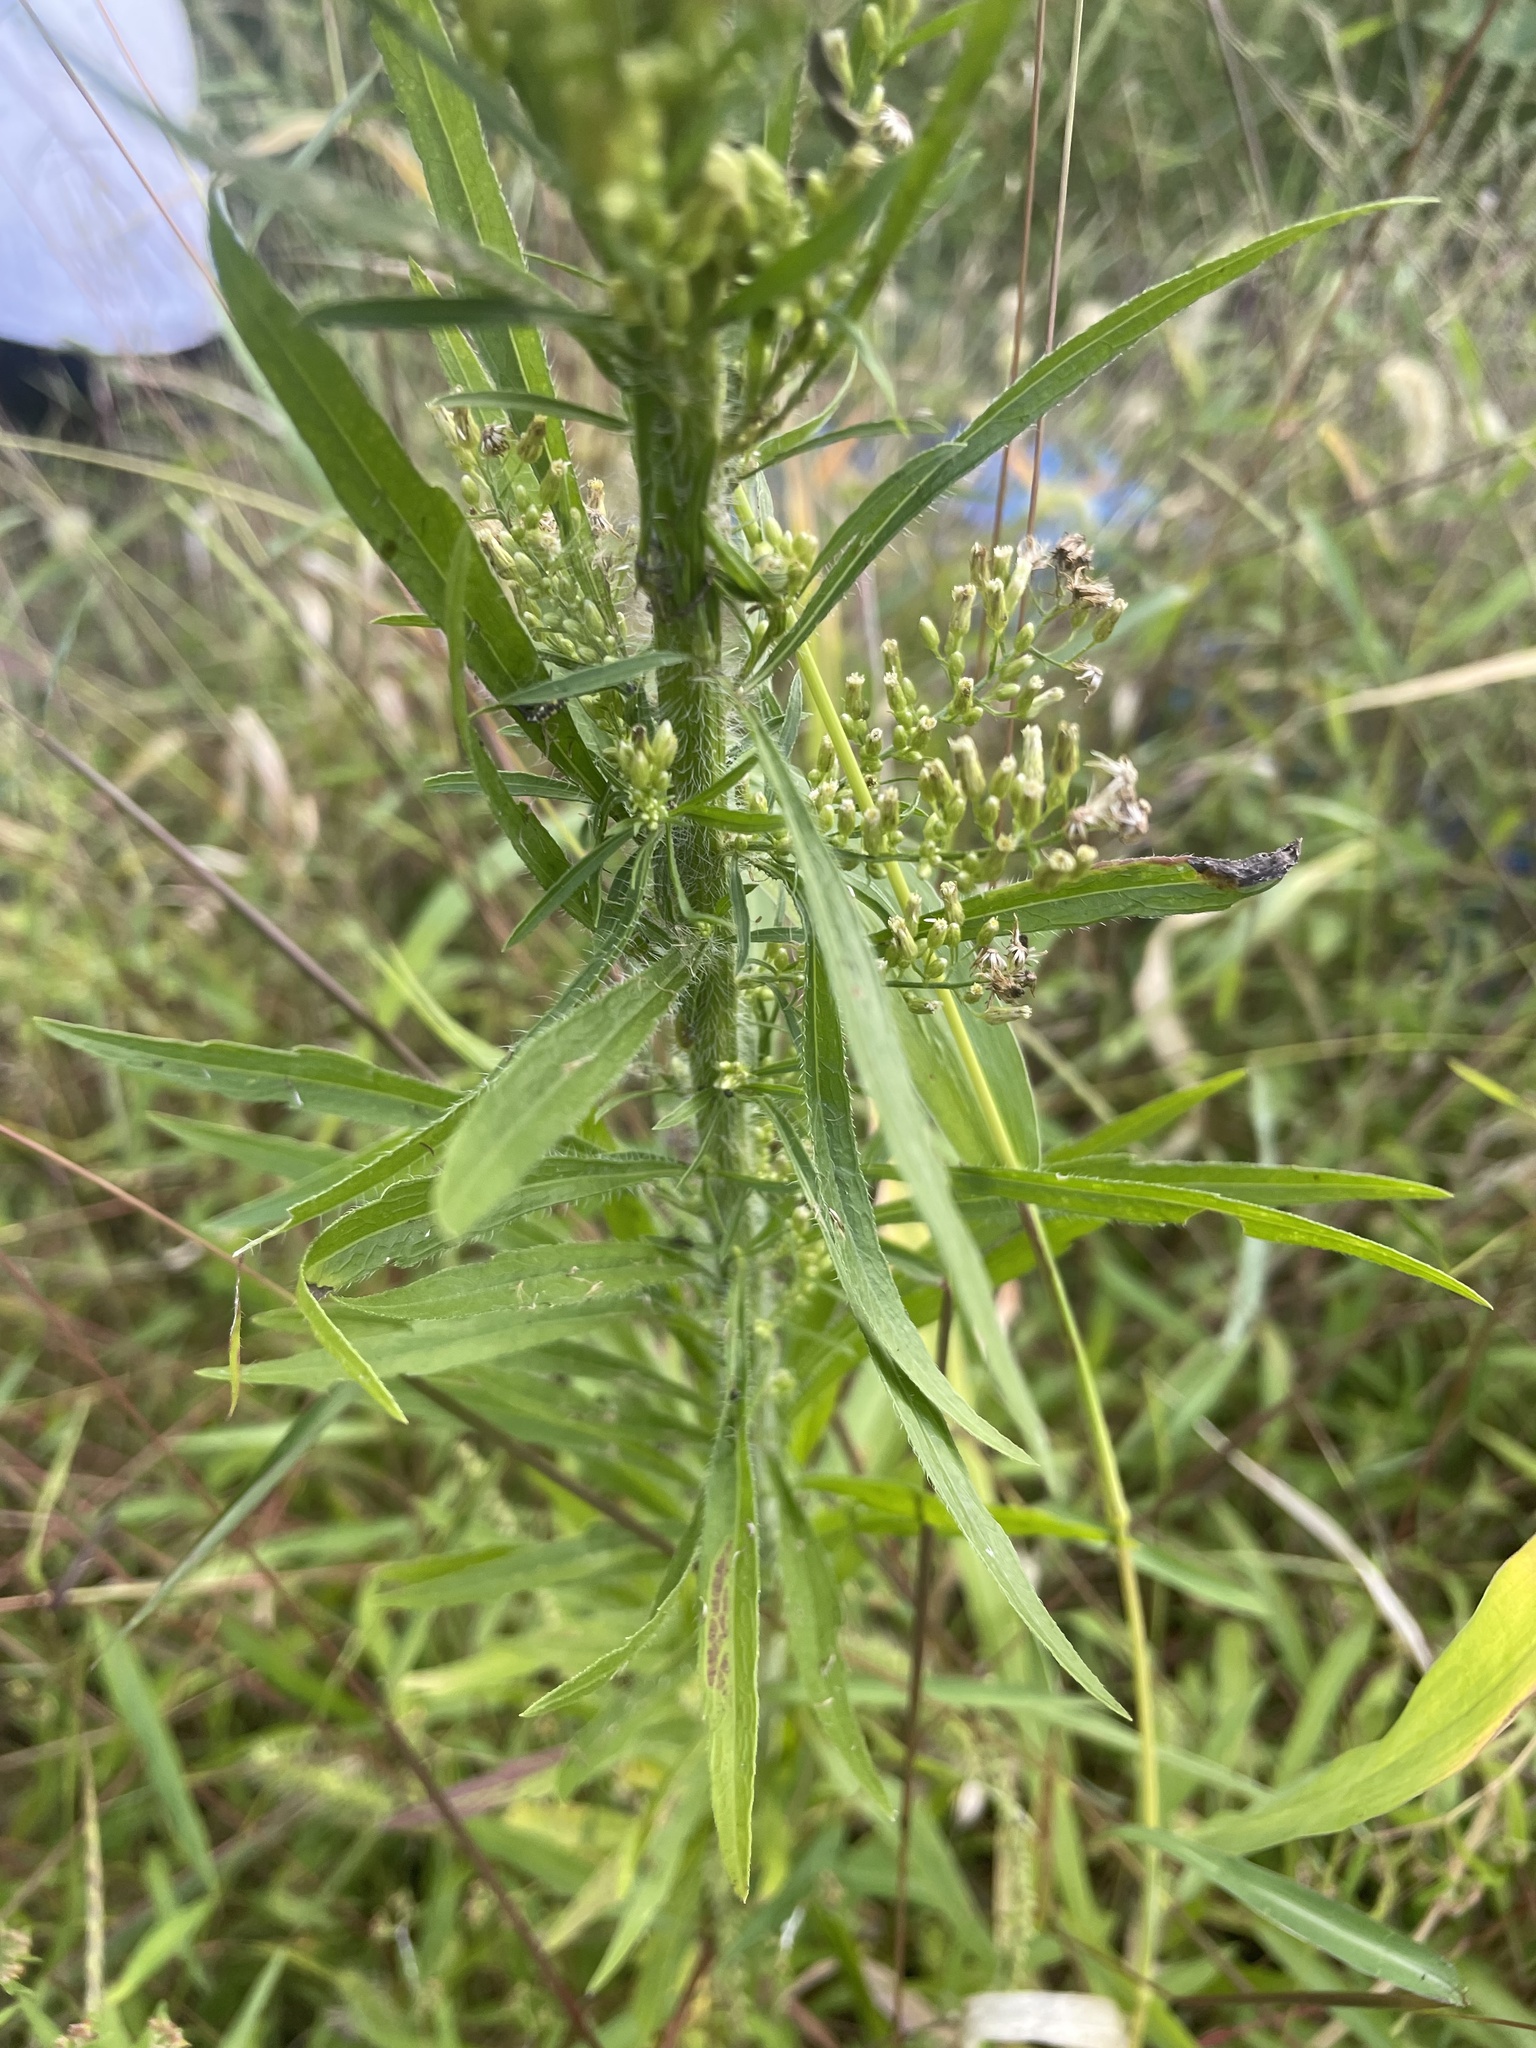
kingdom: Plantae
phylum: Tracheophyta
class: Magnoliopsida
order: Asterales
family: Asteraceae
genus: Erigeron
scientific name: Erigeron canadensis
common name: Canadian fleabane
